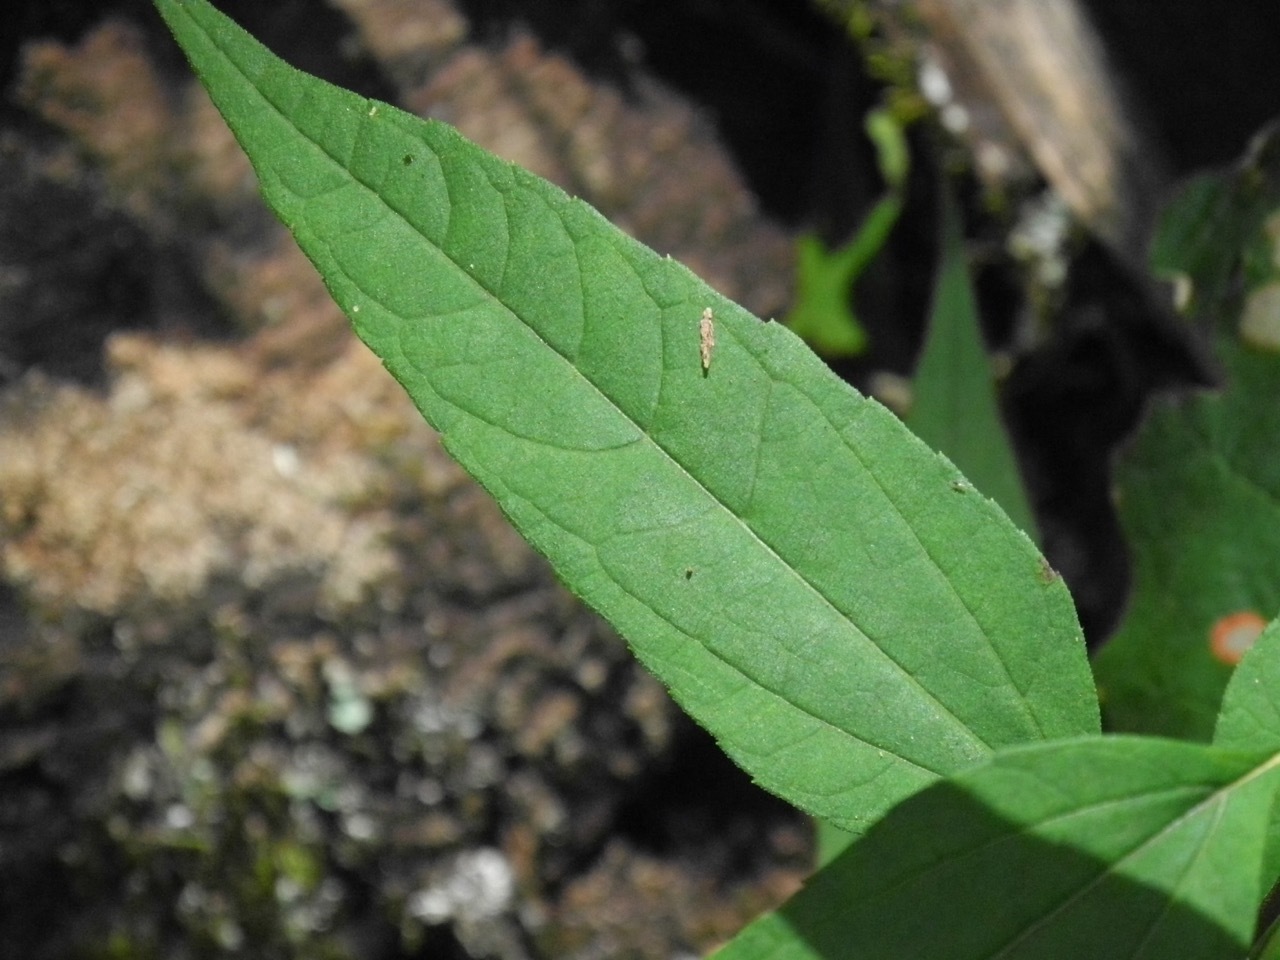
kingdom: Plantae
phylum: Tracheophyta
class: Magnoliopsida
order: Asterales
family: Asteraceae
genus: Helianthus
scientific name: Helianthus hirsutus
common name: Hairy sunflower
